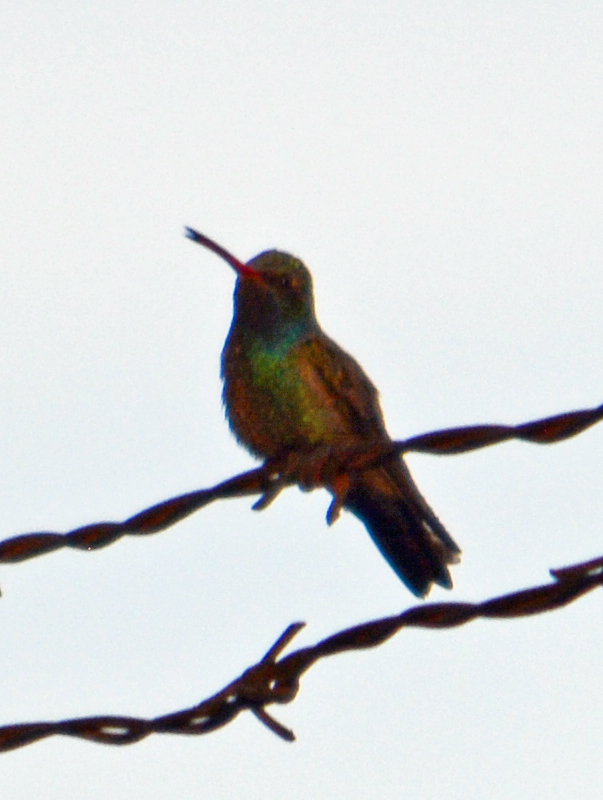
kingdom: Animalia
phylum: Chordata
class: Aves
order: Apodiformes
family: Trochilidae
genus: Cynanthus
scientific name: Cynanthus latirostris
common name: Broad-billed hummingbird
